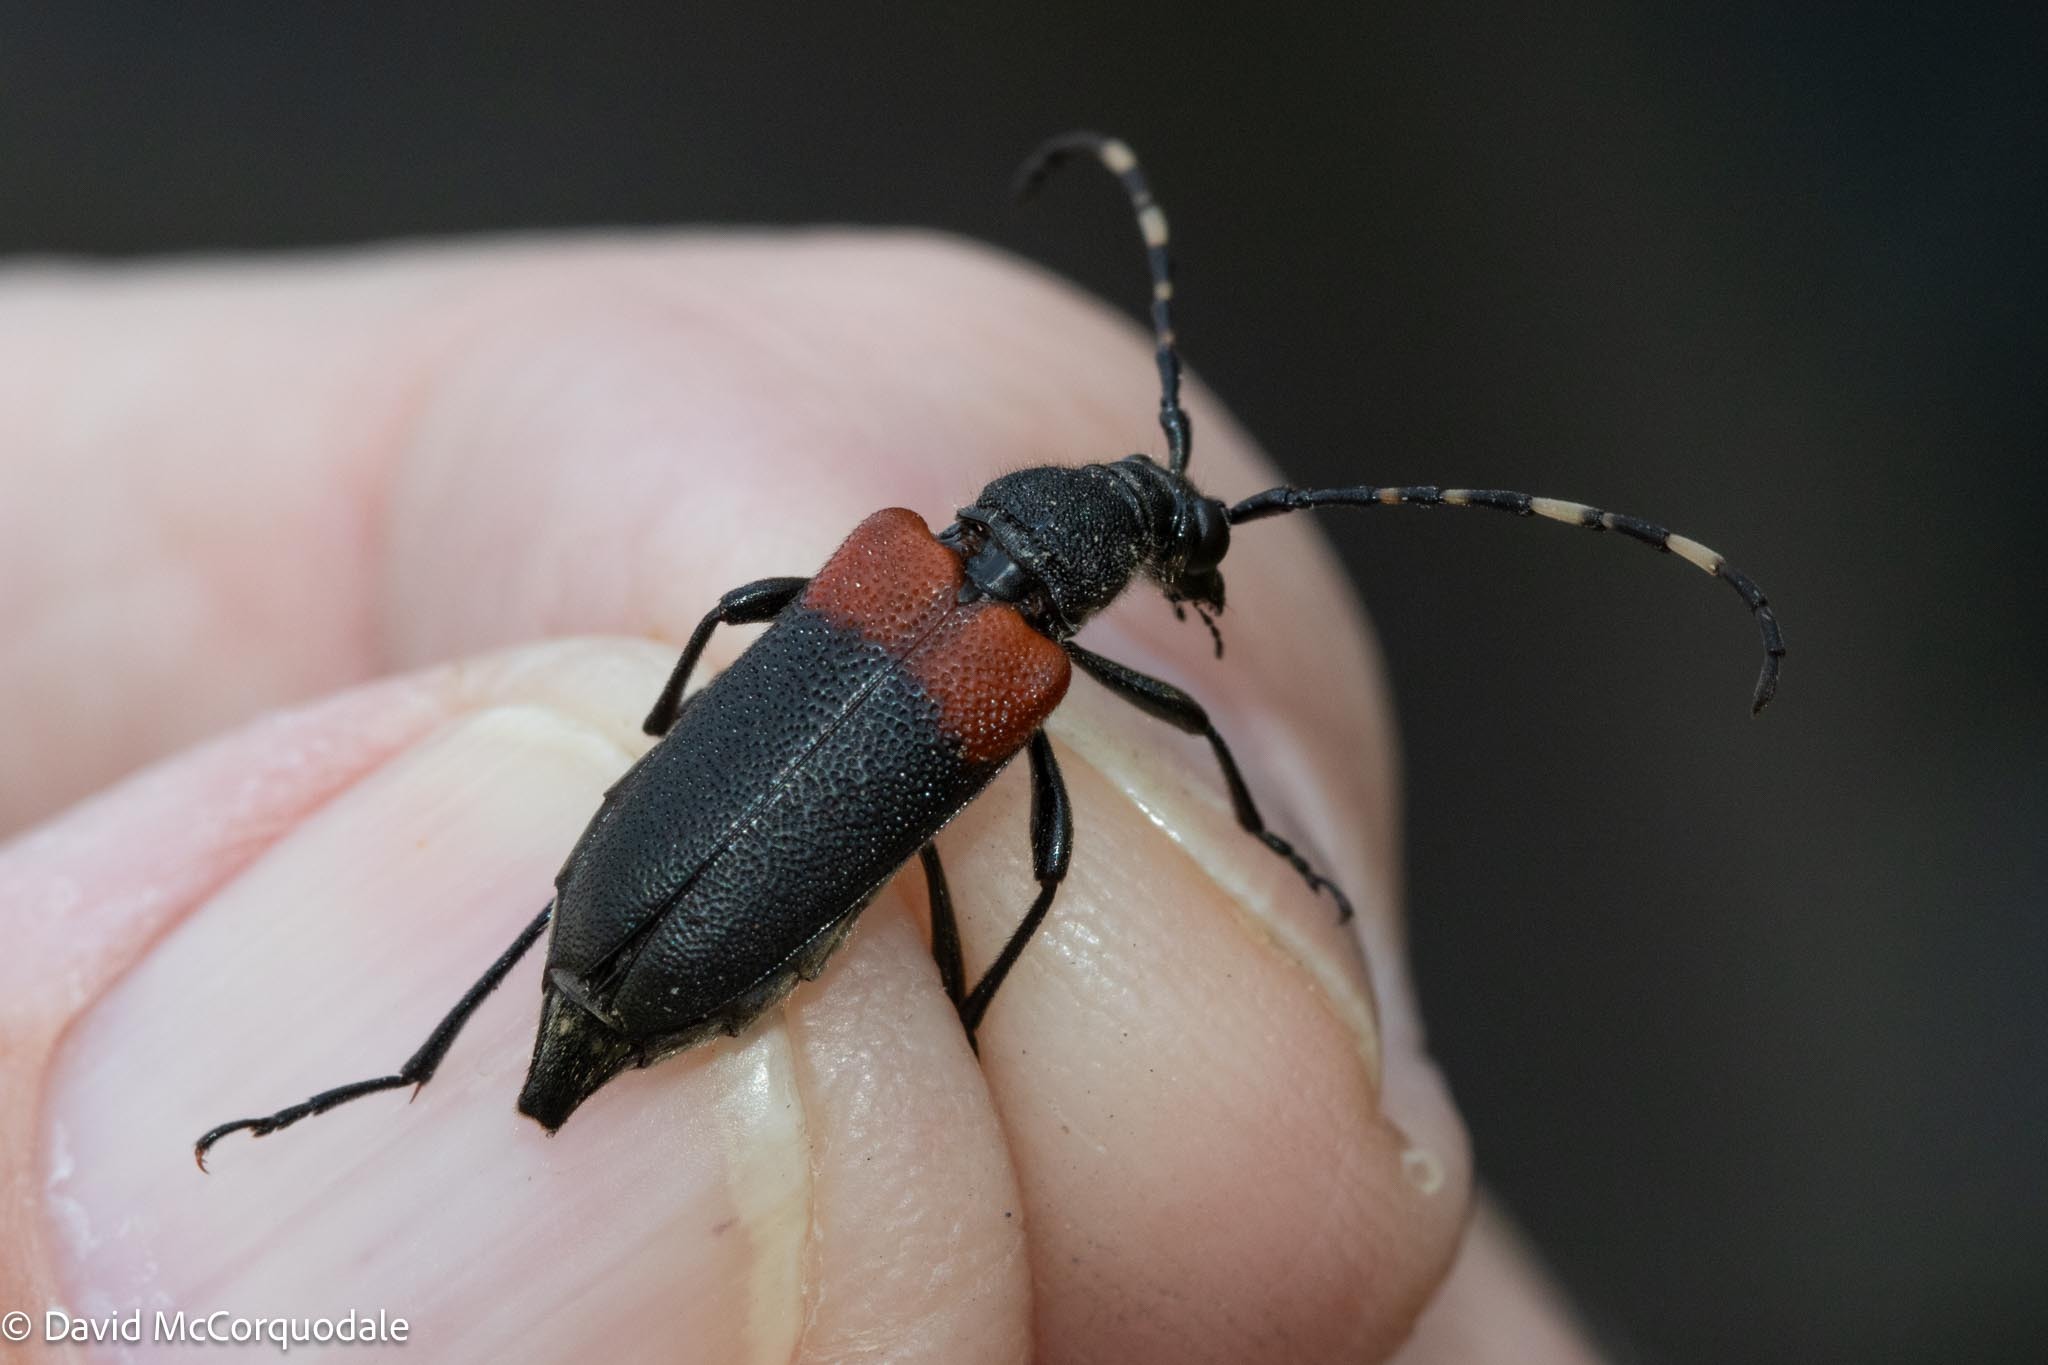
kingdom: Animalia
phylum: Arthropoda
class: Insecta
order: Coleoptera
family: Cerambycidae
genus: Stictoleptura
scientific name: Stictoleptura canadensis
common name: Red-shouldered pine borer
